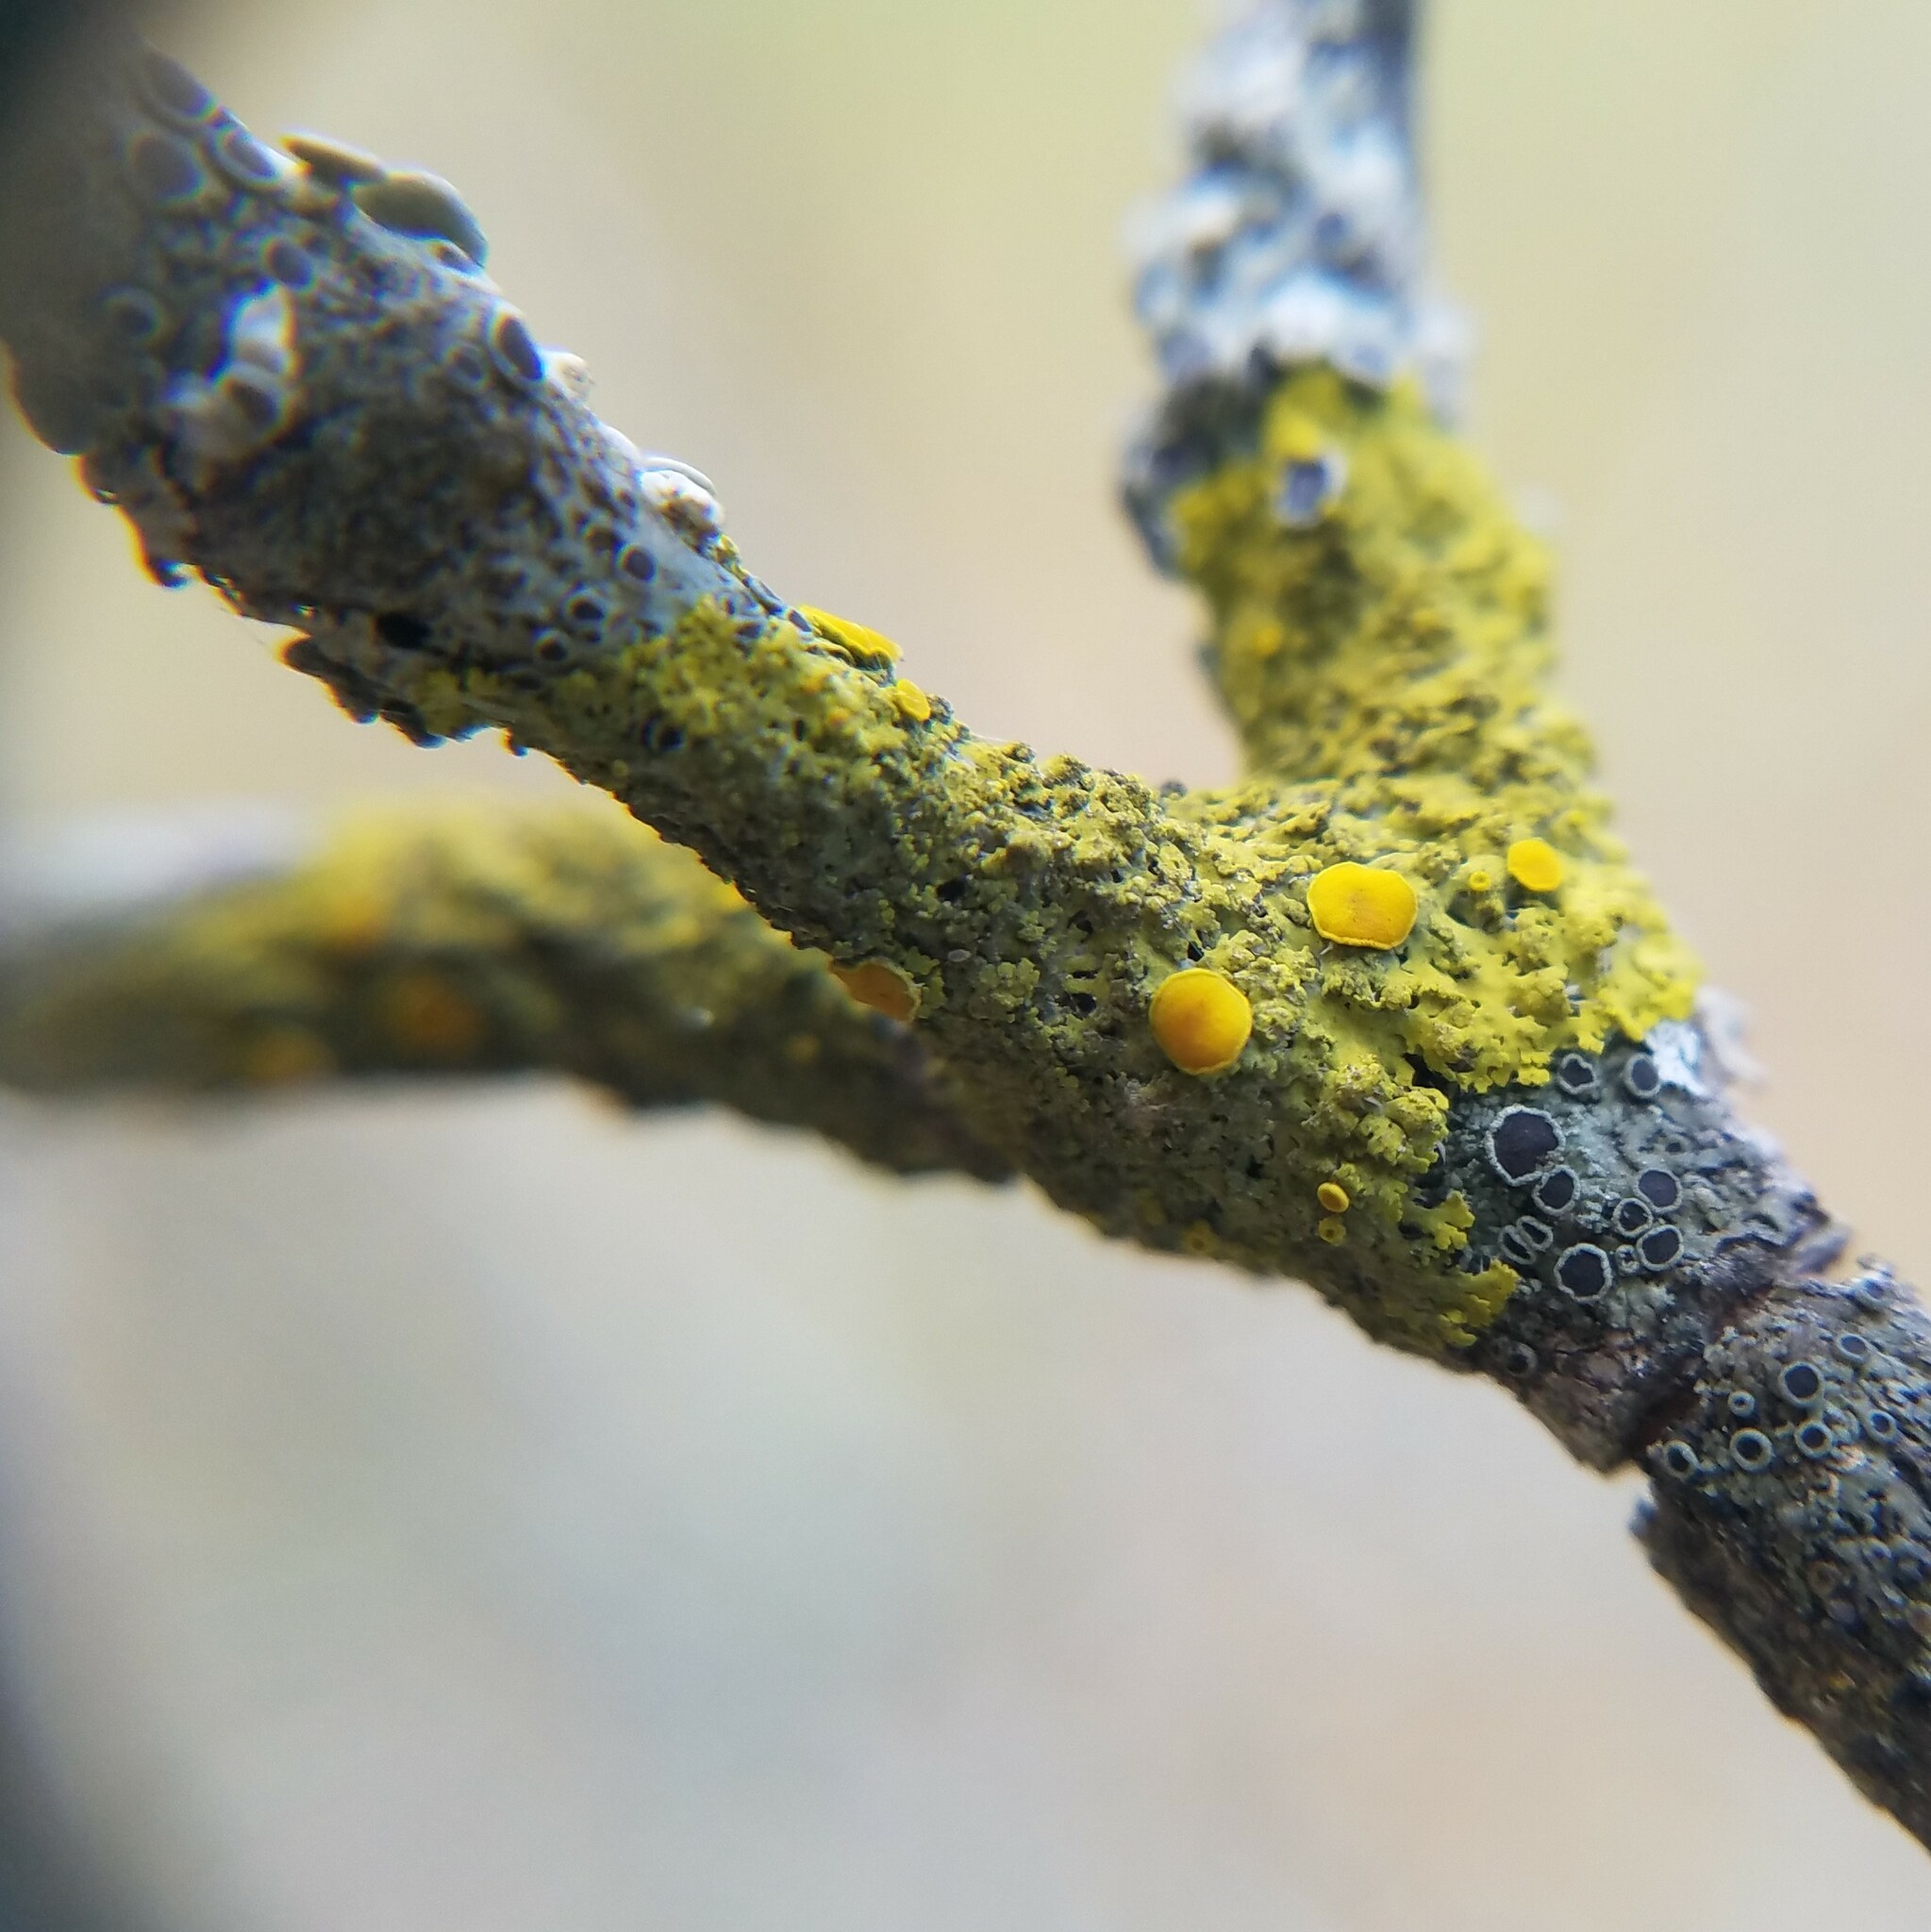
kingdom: Fungi
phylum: Ascomycota
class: Candelariomycetes
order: Candelariales
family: Candelariaceae
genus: Candelaria
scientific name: Candelaria fibrosa
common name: Fringed candleflame lichen
